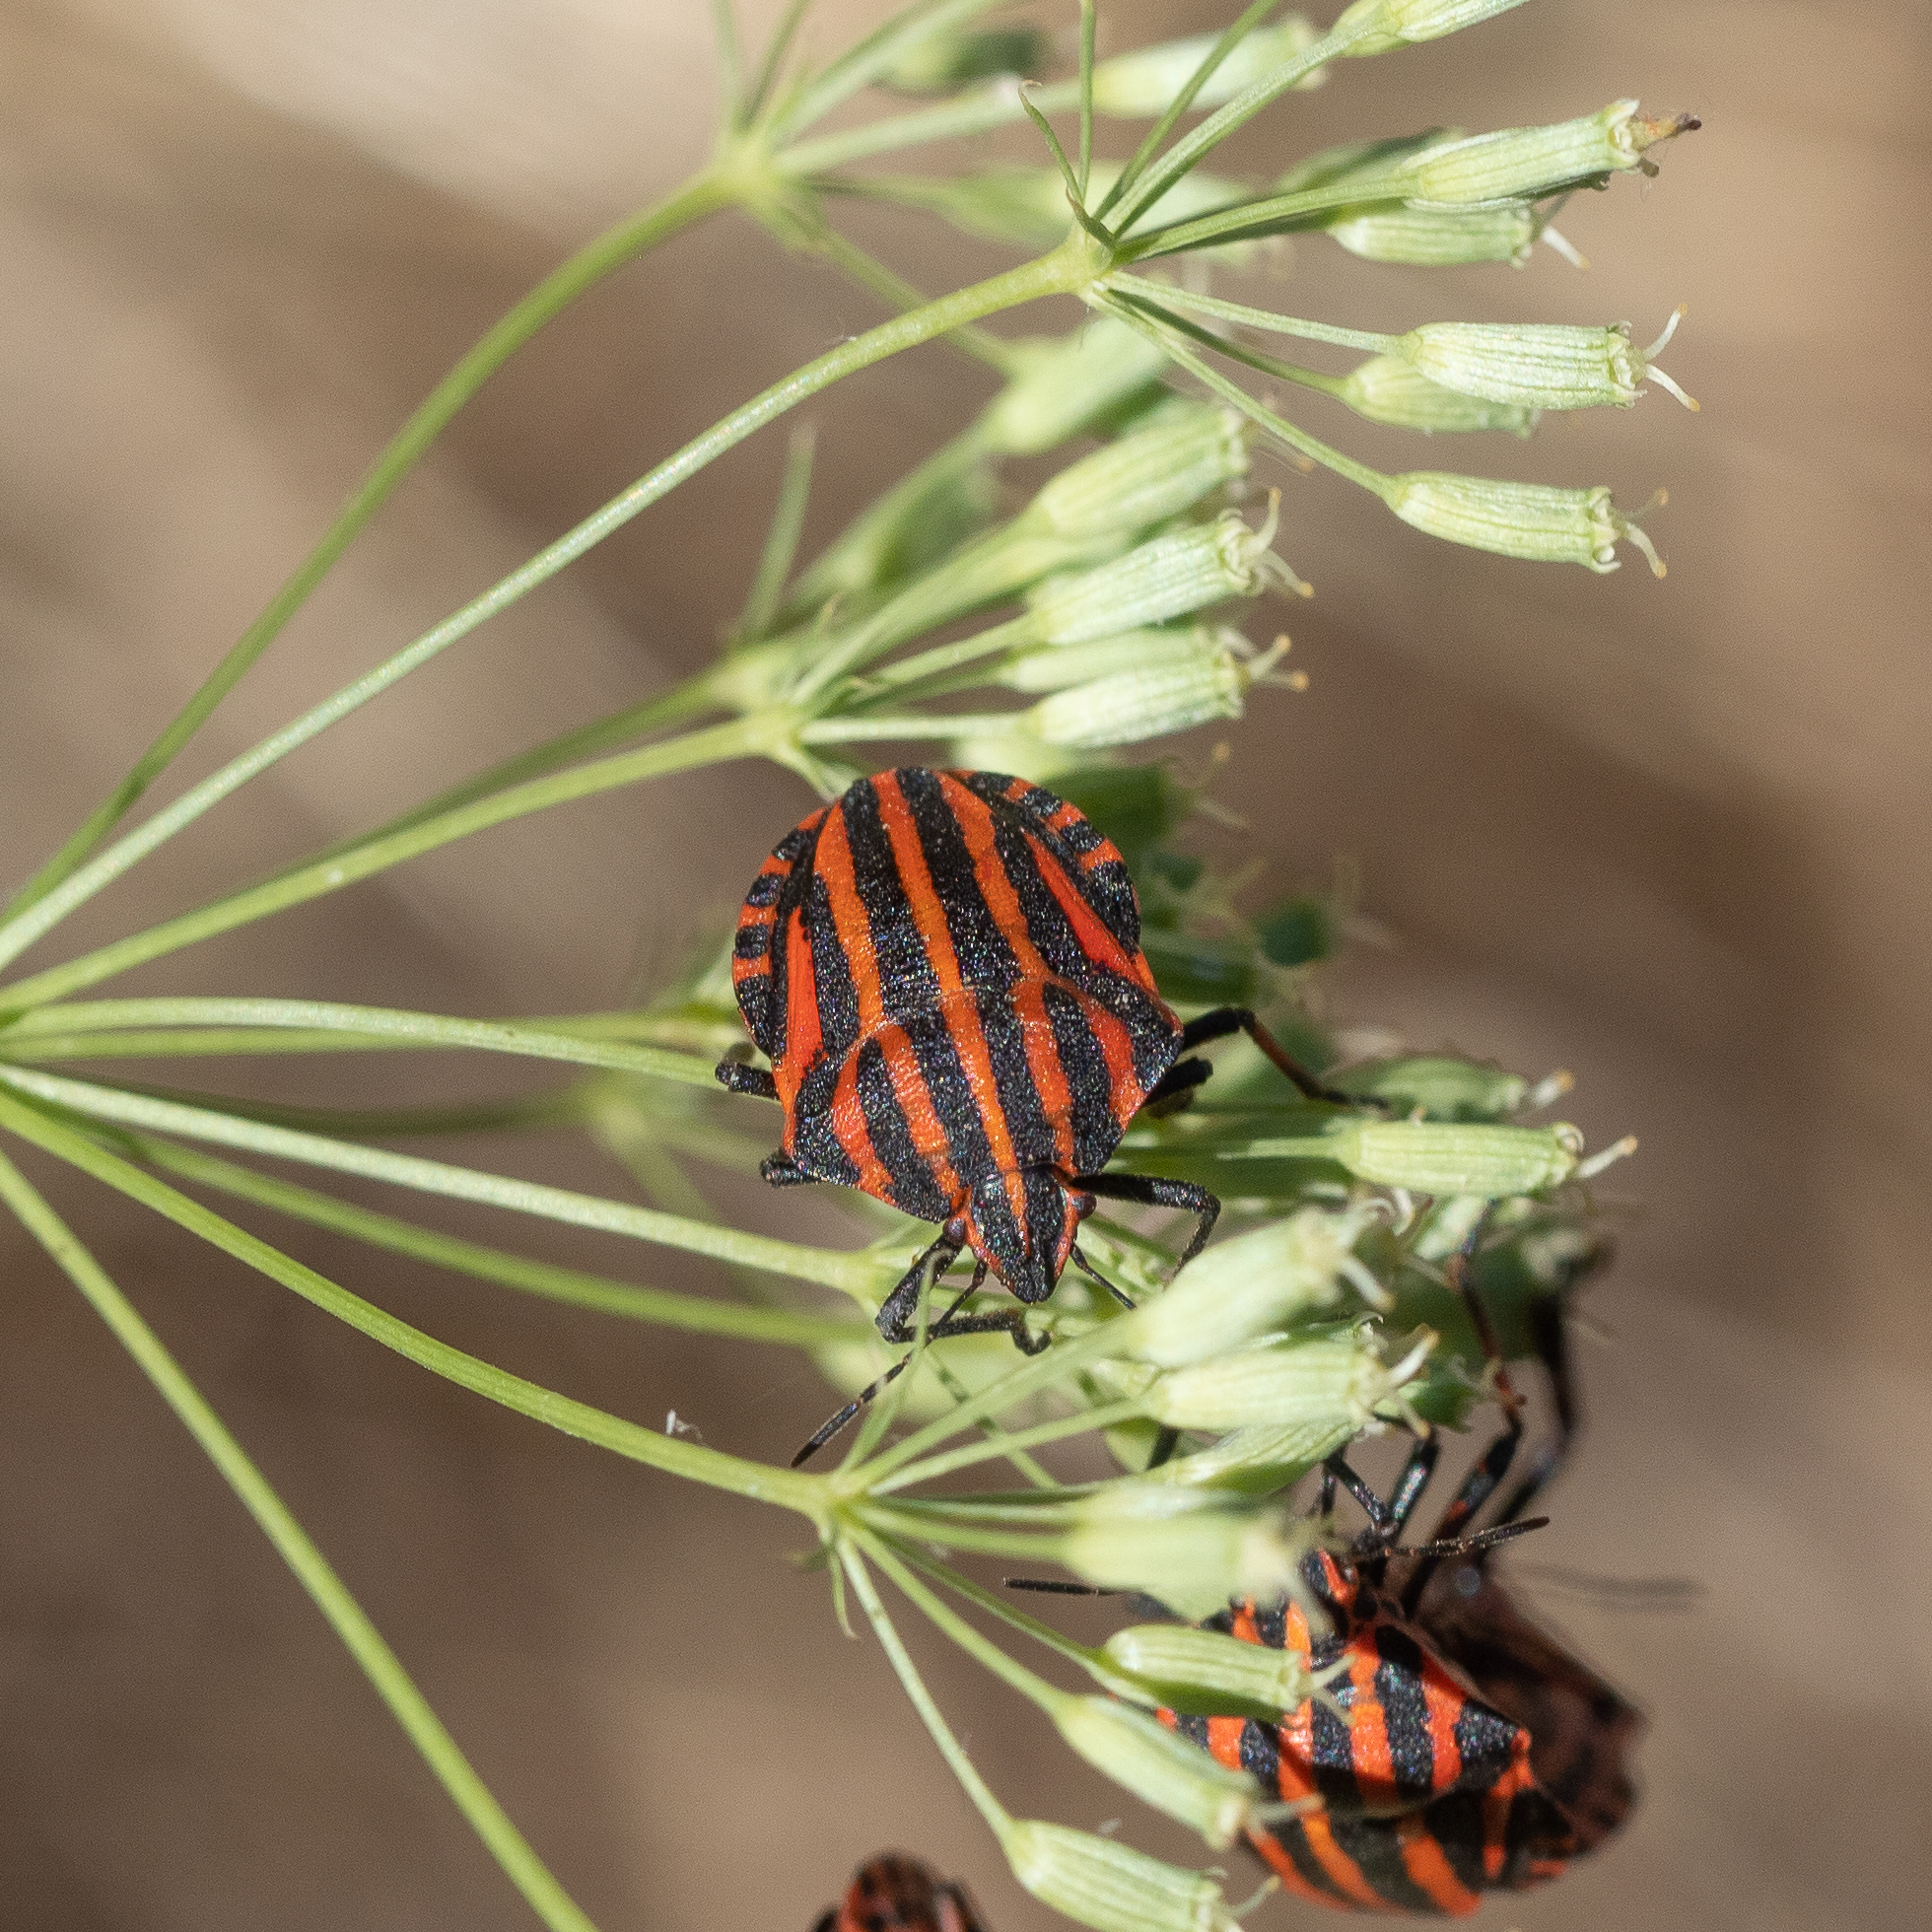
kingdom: Animalia
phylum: Arthropoda
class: Insecta
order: Hemiptera
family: Pentatomidae
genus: Graphosoma
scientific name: Graphosoma italicum
